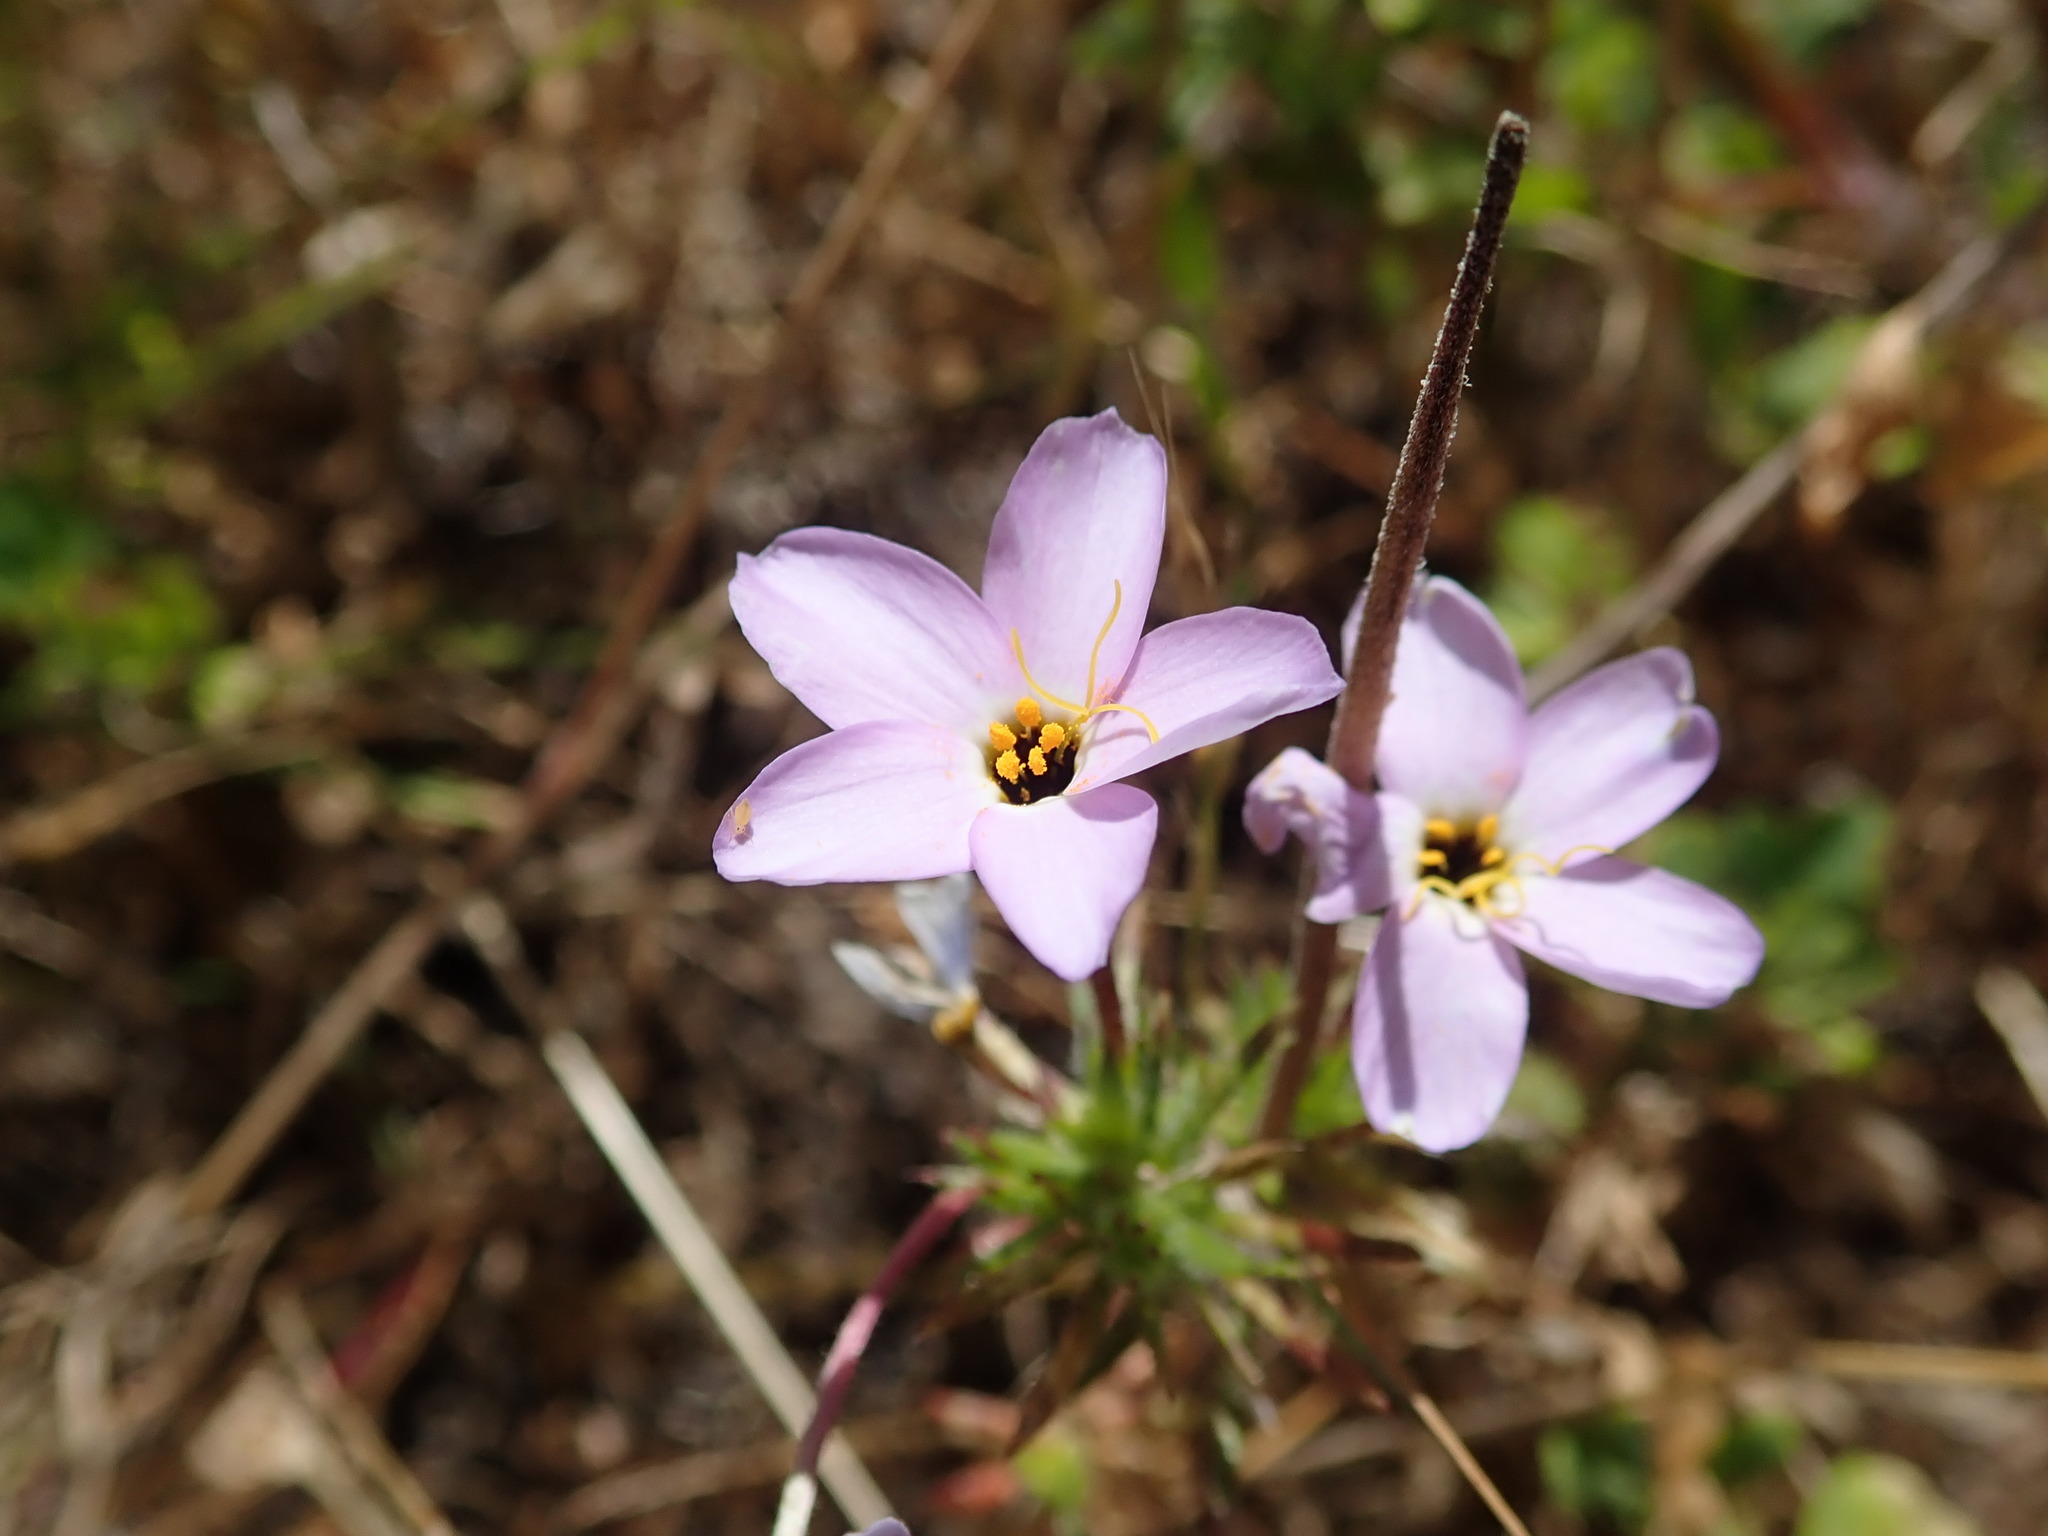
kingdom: Plantae
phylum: Tracheophyta
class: Magnoliopsida
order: Ericales
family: Polemoniaceae
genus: Leptosiphon
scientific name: Leptosiphon androsaceus
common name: False babystars
